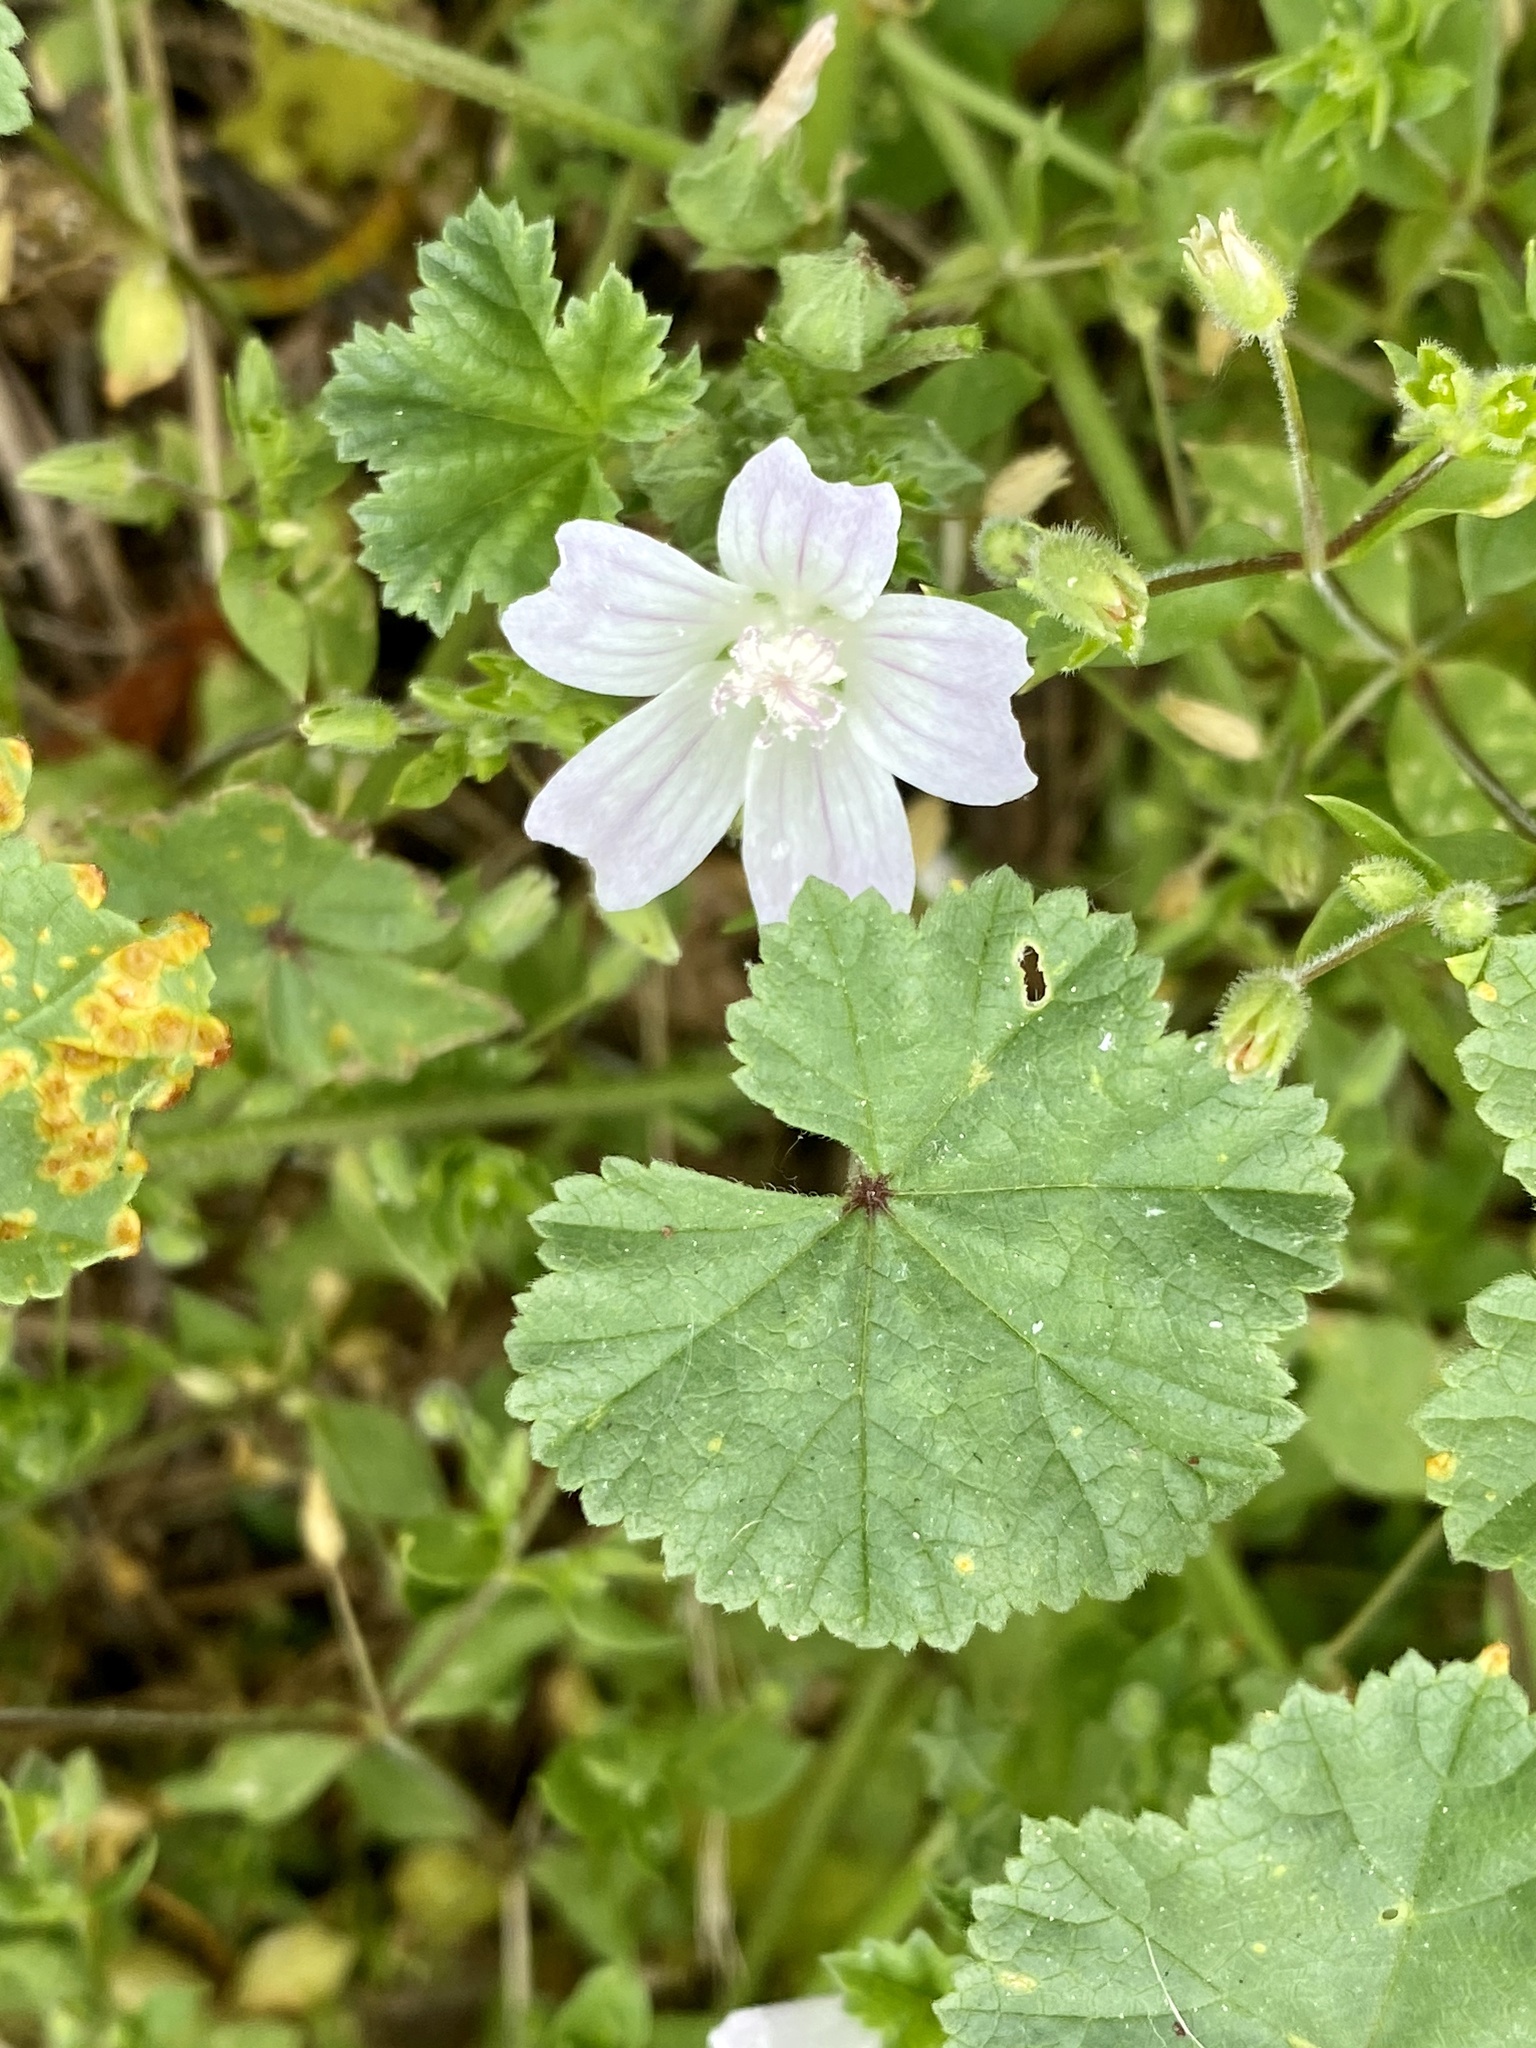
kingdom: Plantae
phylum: Tracheophyta
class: Magnoliopsida
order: Malvales
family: Malvaceae
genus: Malva
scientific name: Malva neglecta
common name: Common mallow
